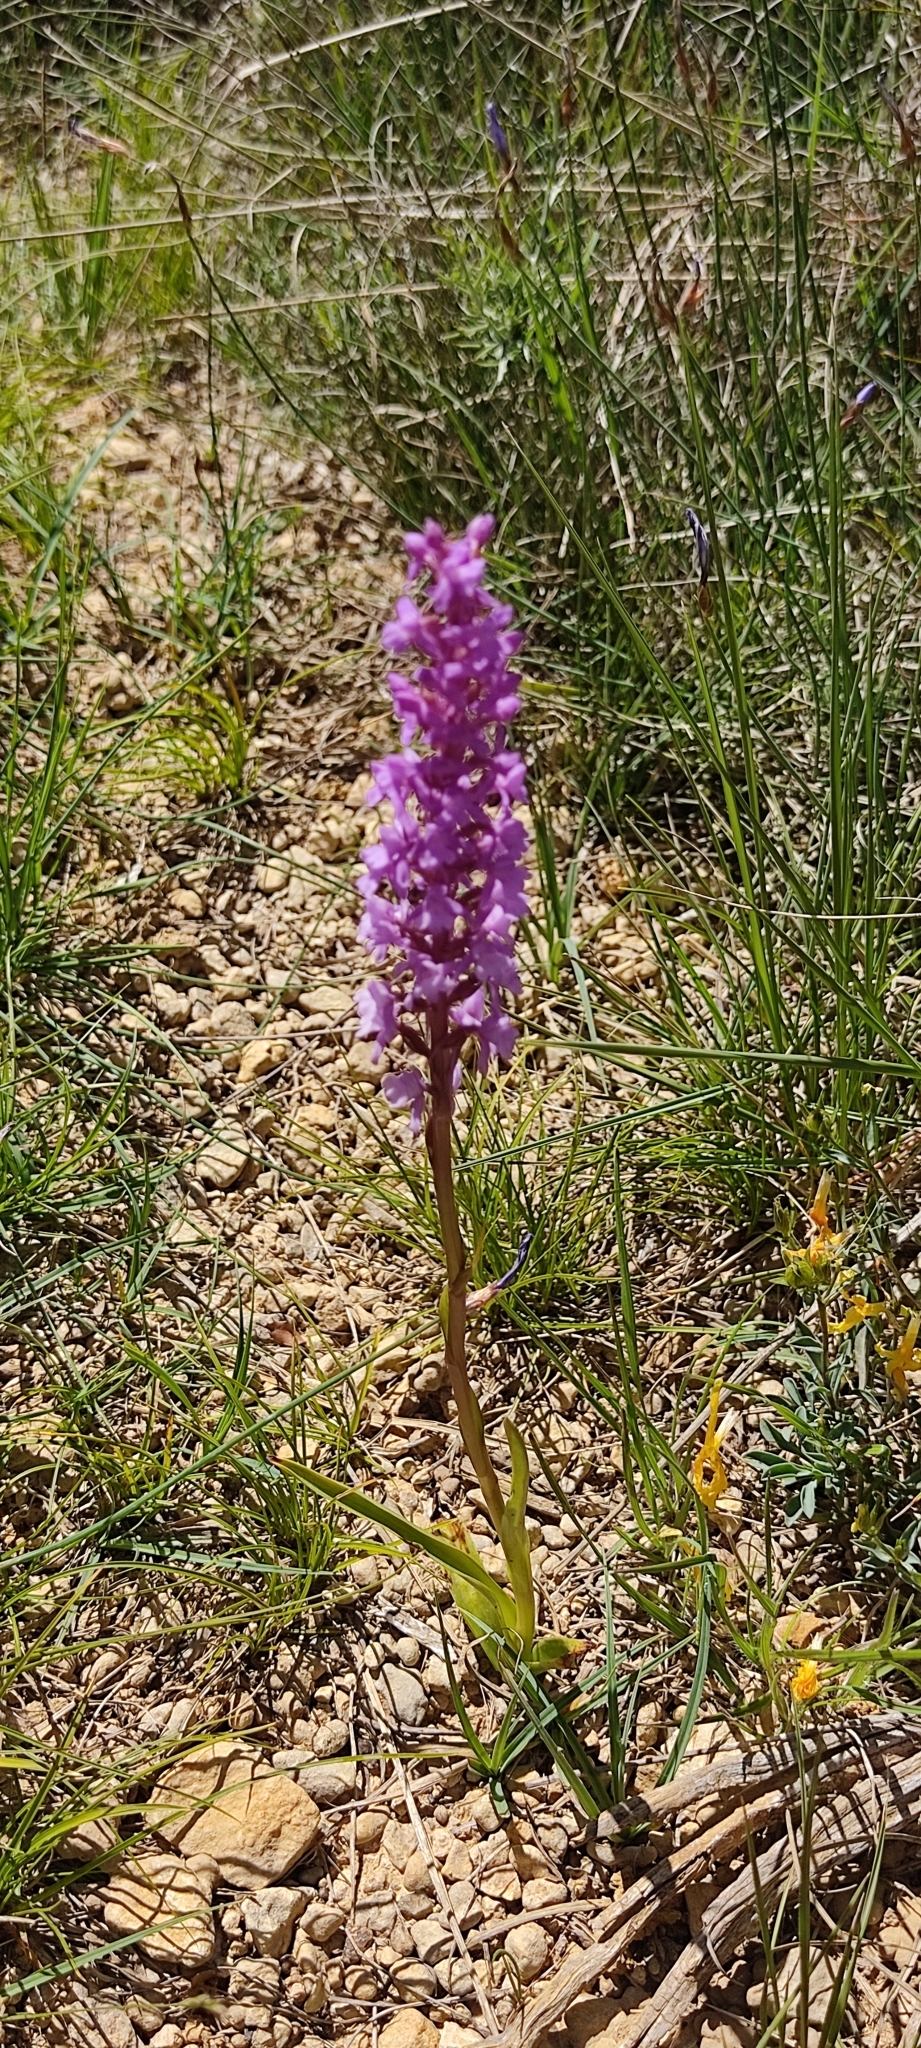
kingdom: Plantae
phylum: Tracheophyta
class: Liliopsida
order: Asparagales
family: Orchidaceae
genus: Gymnadenia
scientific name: Gymnadenia conopsea
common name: Fragrant orchid
